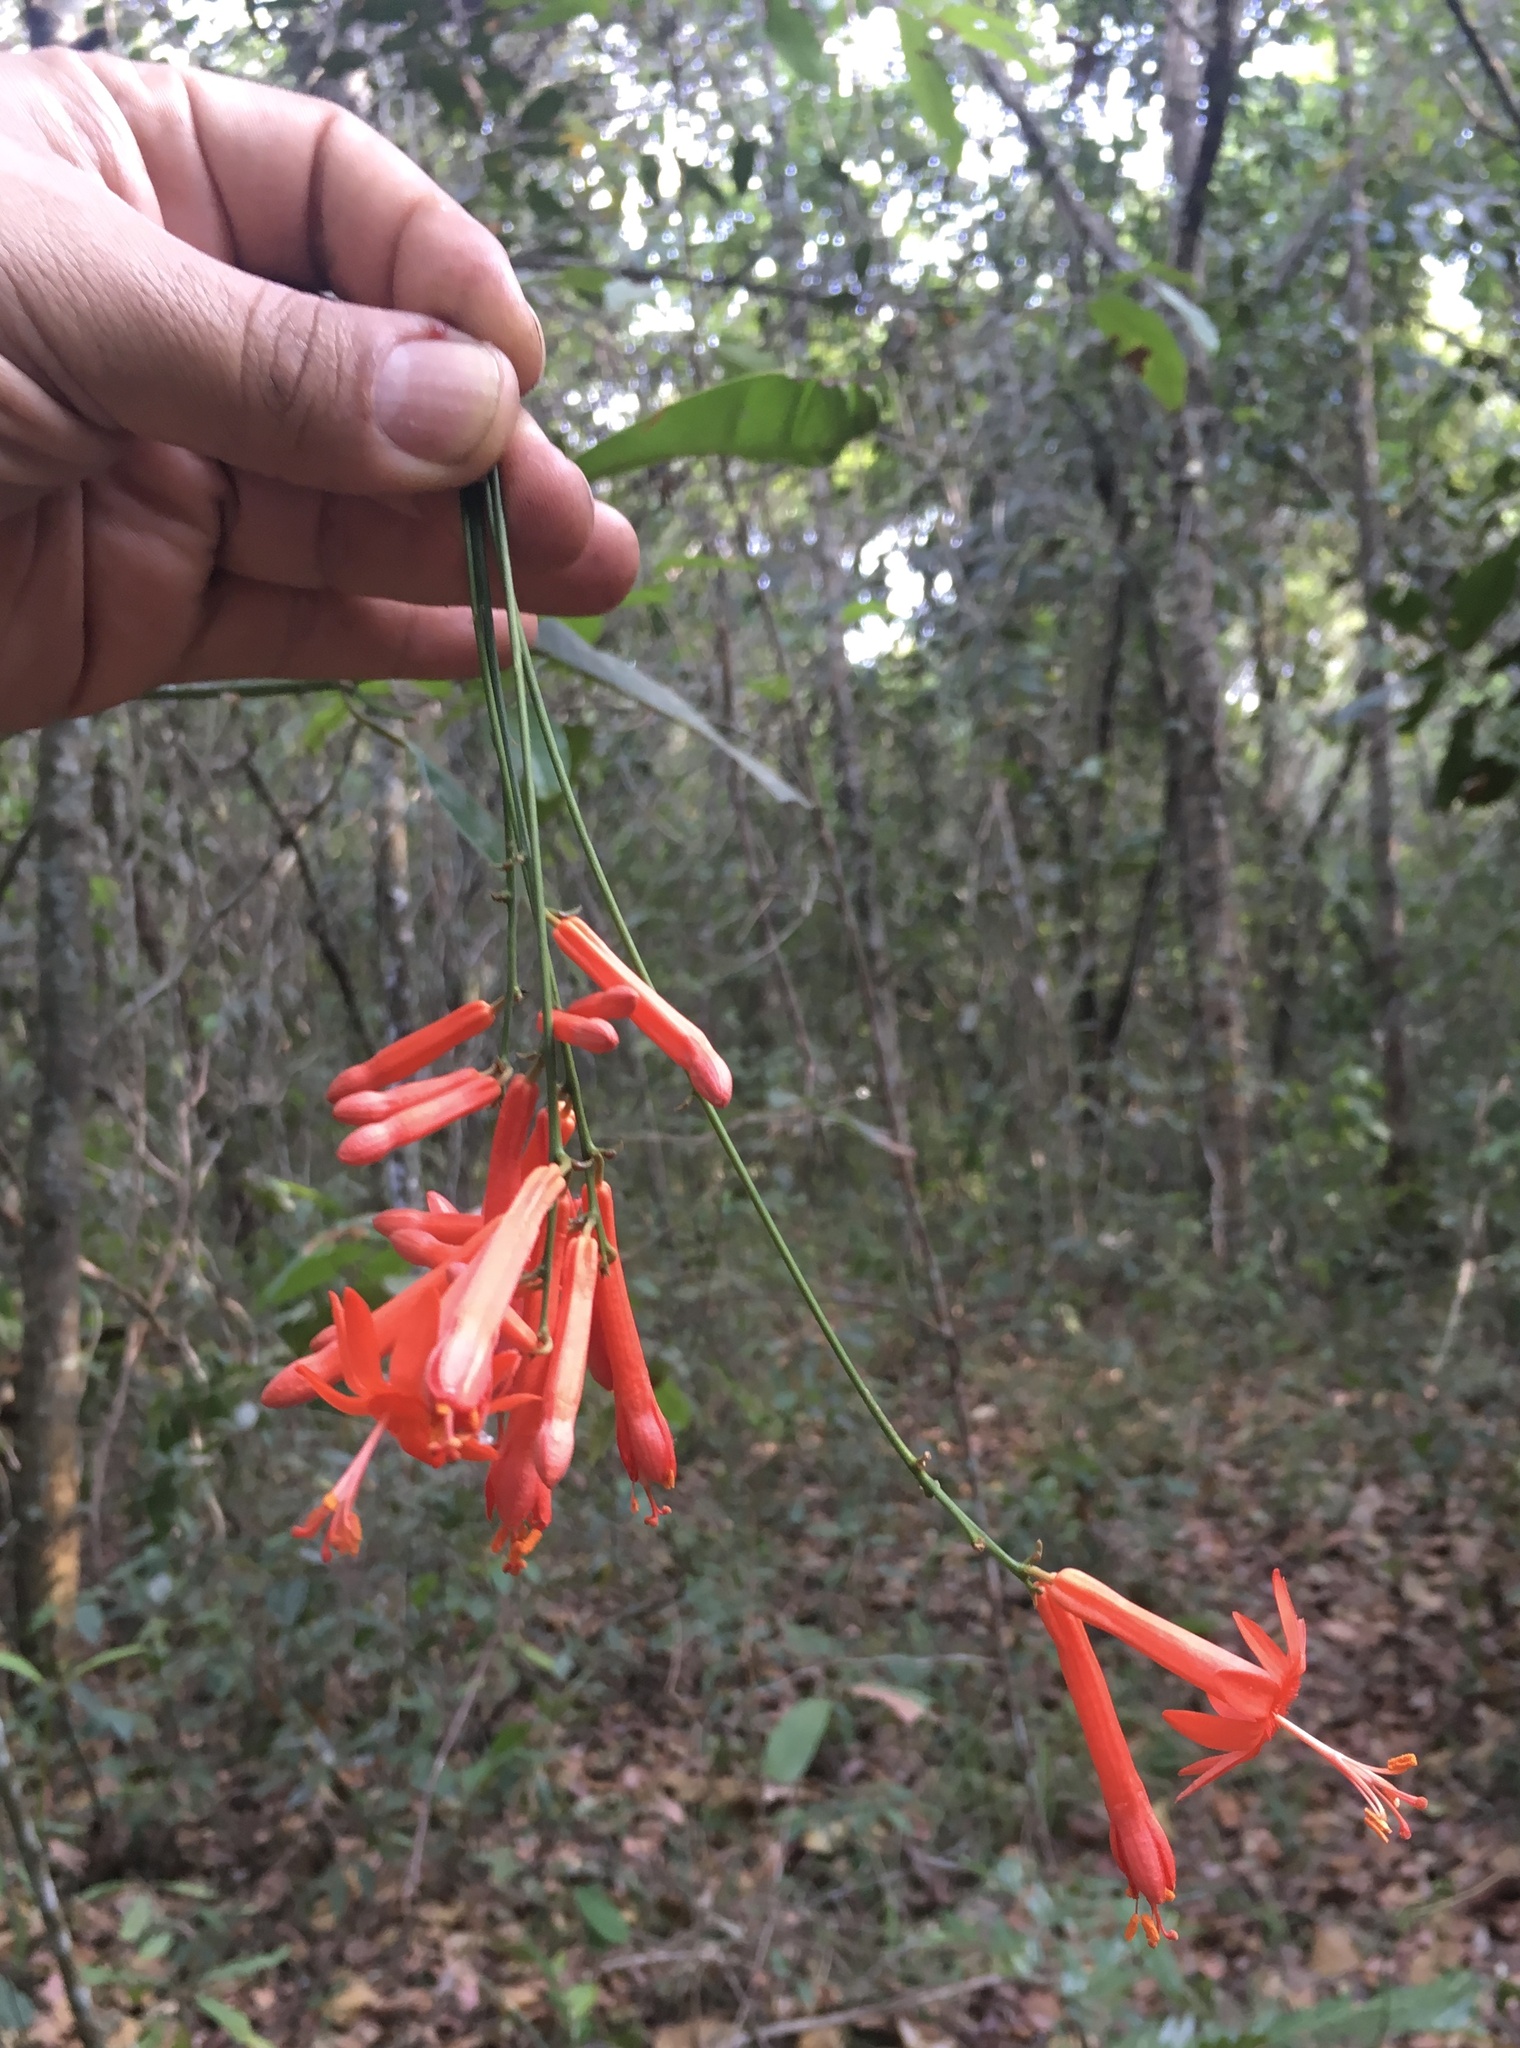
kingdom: Plantae
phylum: Tracheophyta
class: Magnoliopsida
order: Malpighiales
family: Passifloraceae
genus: Passiflora
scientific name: Passiflora securiclata
